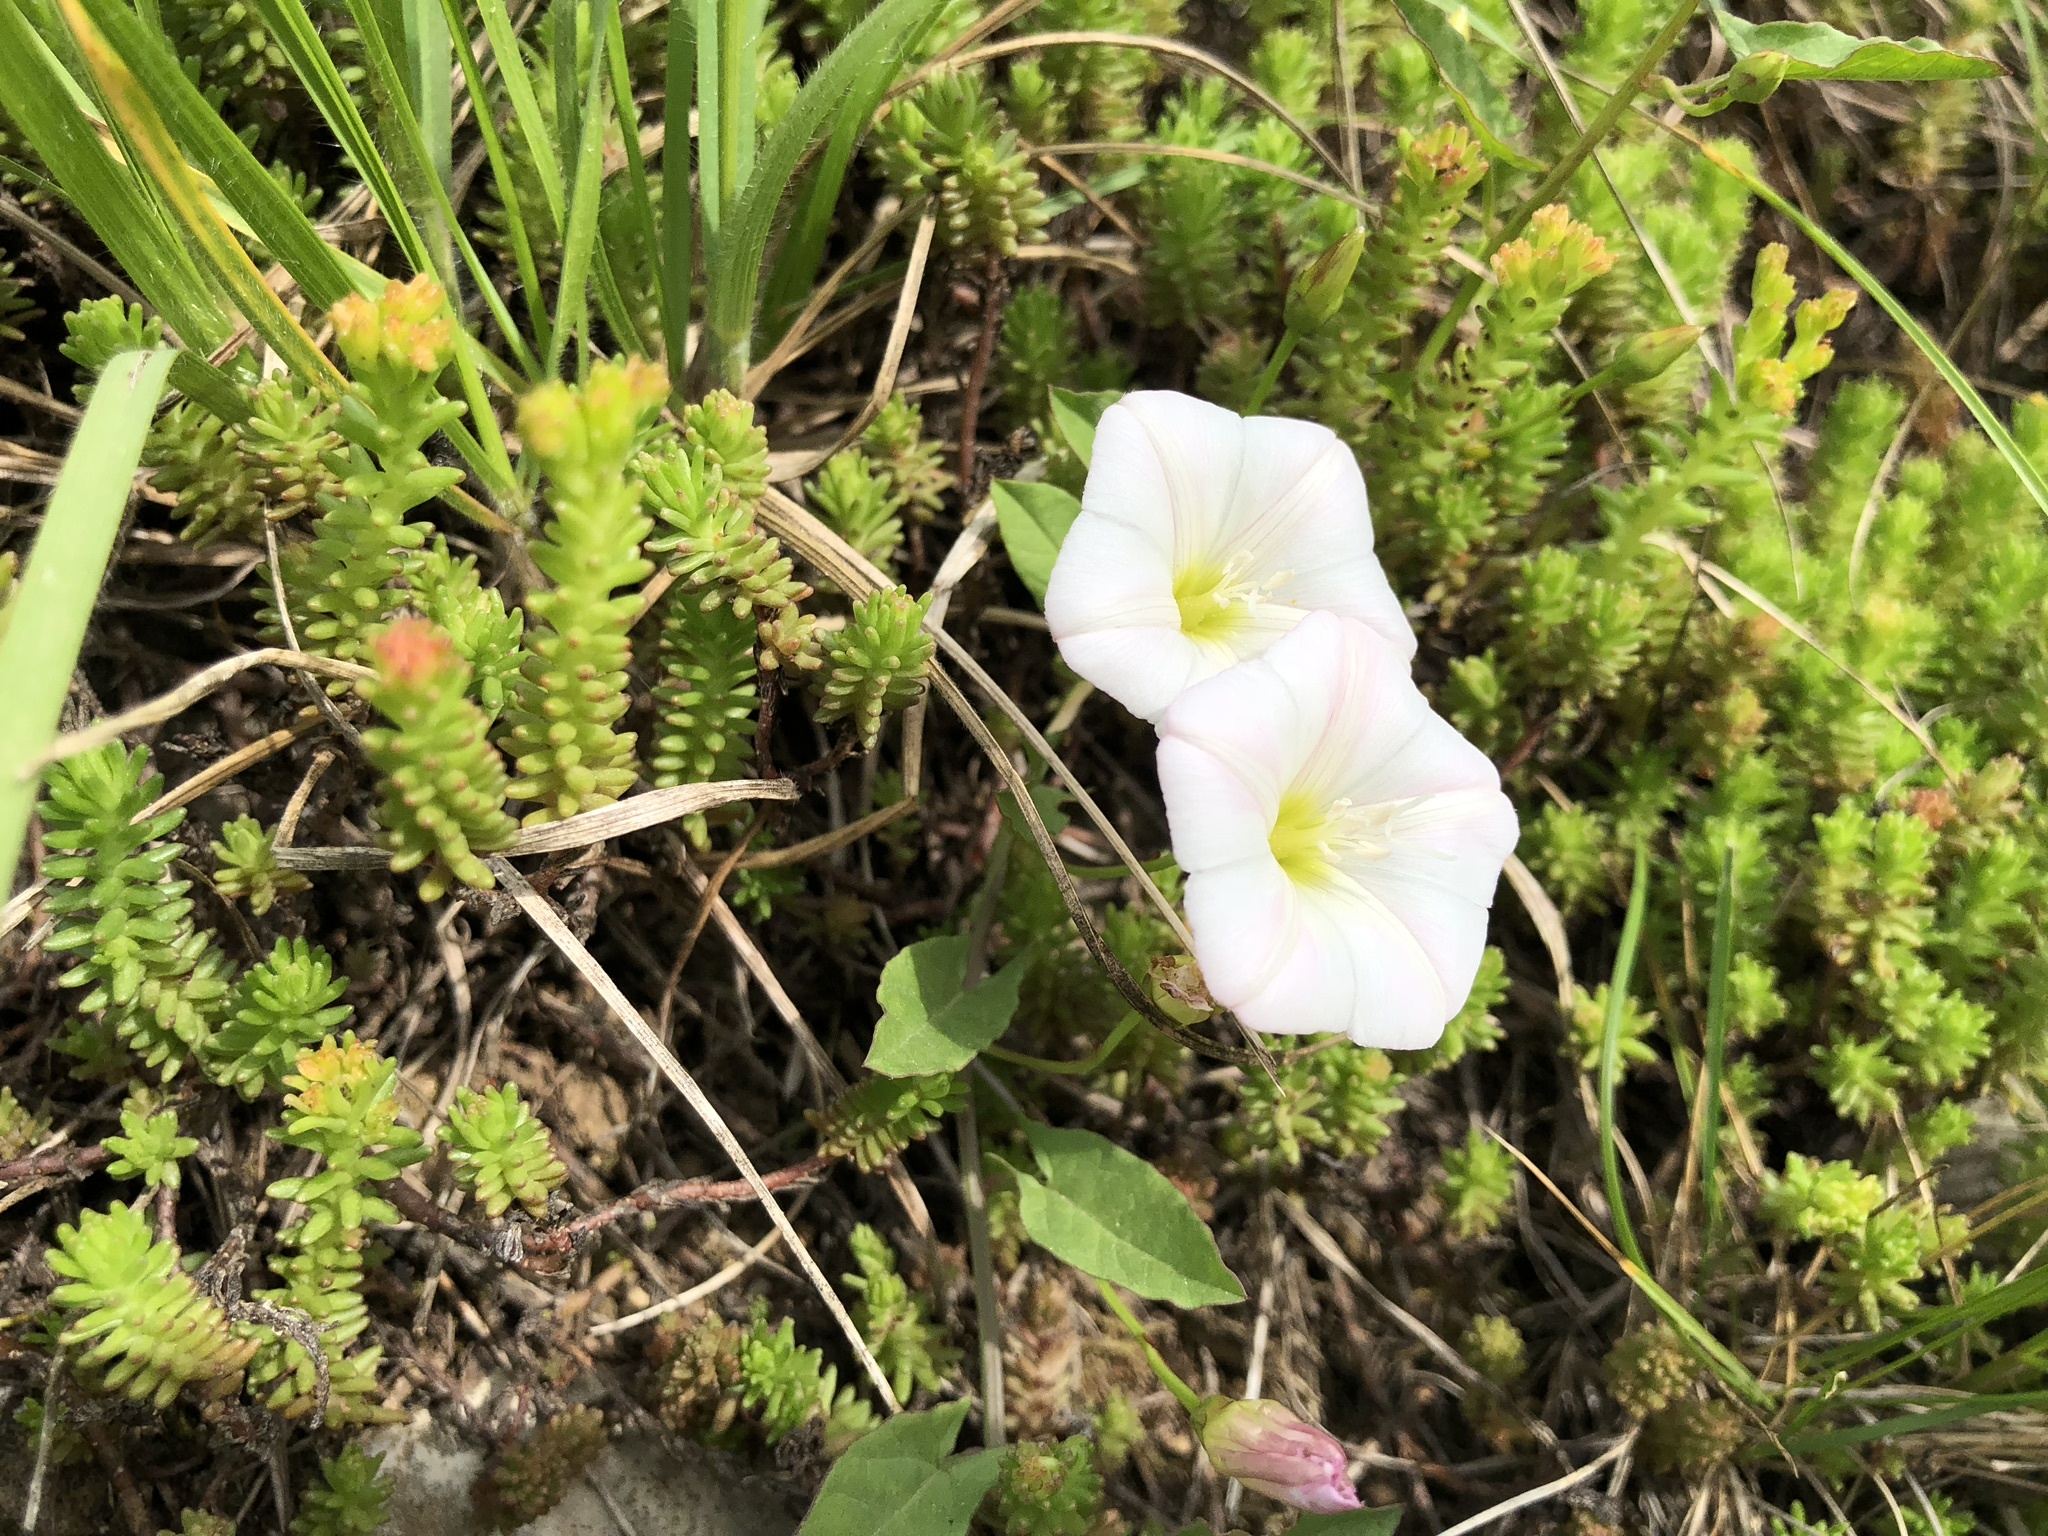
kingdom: Plantae
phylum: Tracheophyta
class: Magnoliopsida
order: Solanales
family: Convolvulaceae
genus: Convolvulus
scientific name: Convolvulus arvensis
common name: Field bindweed
